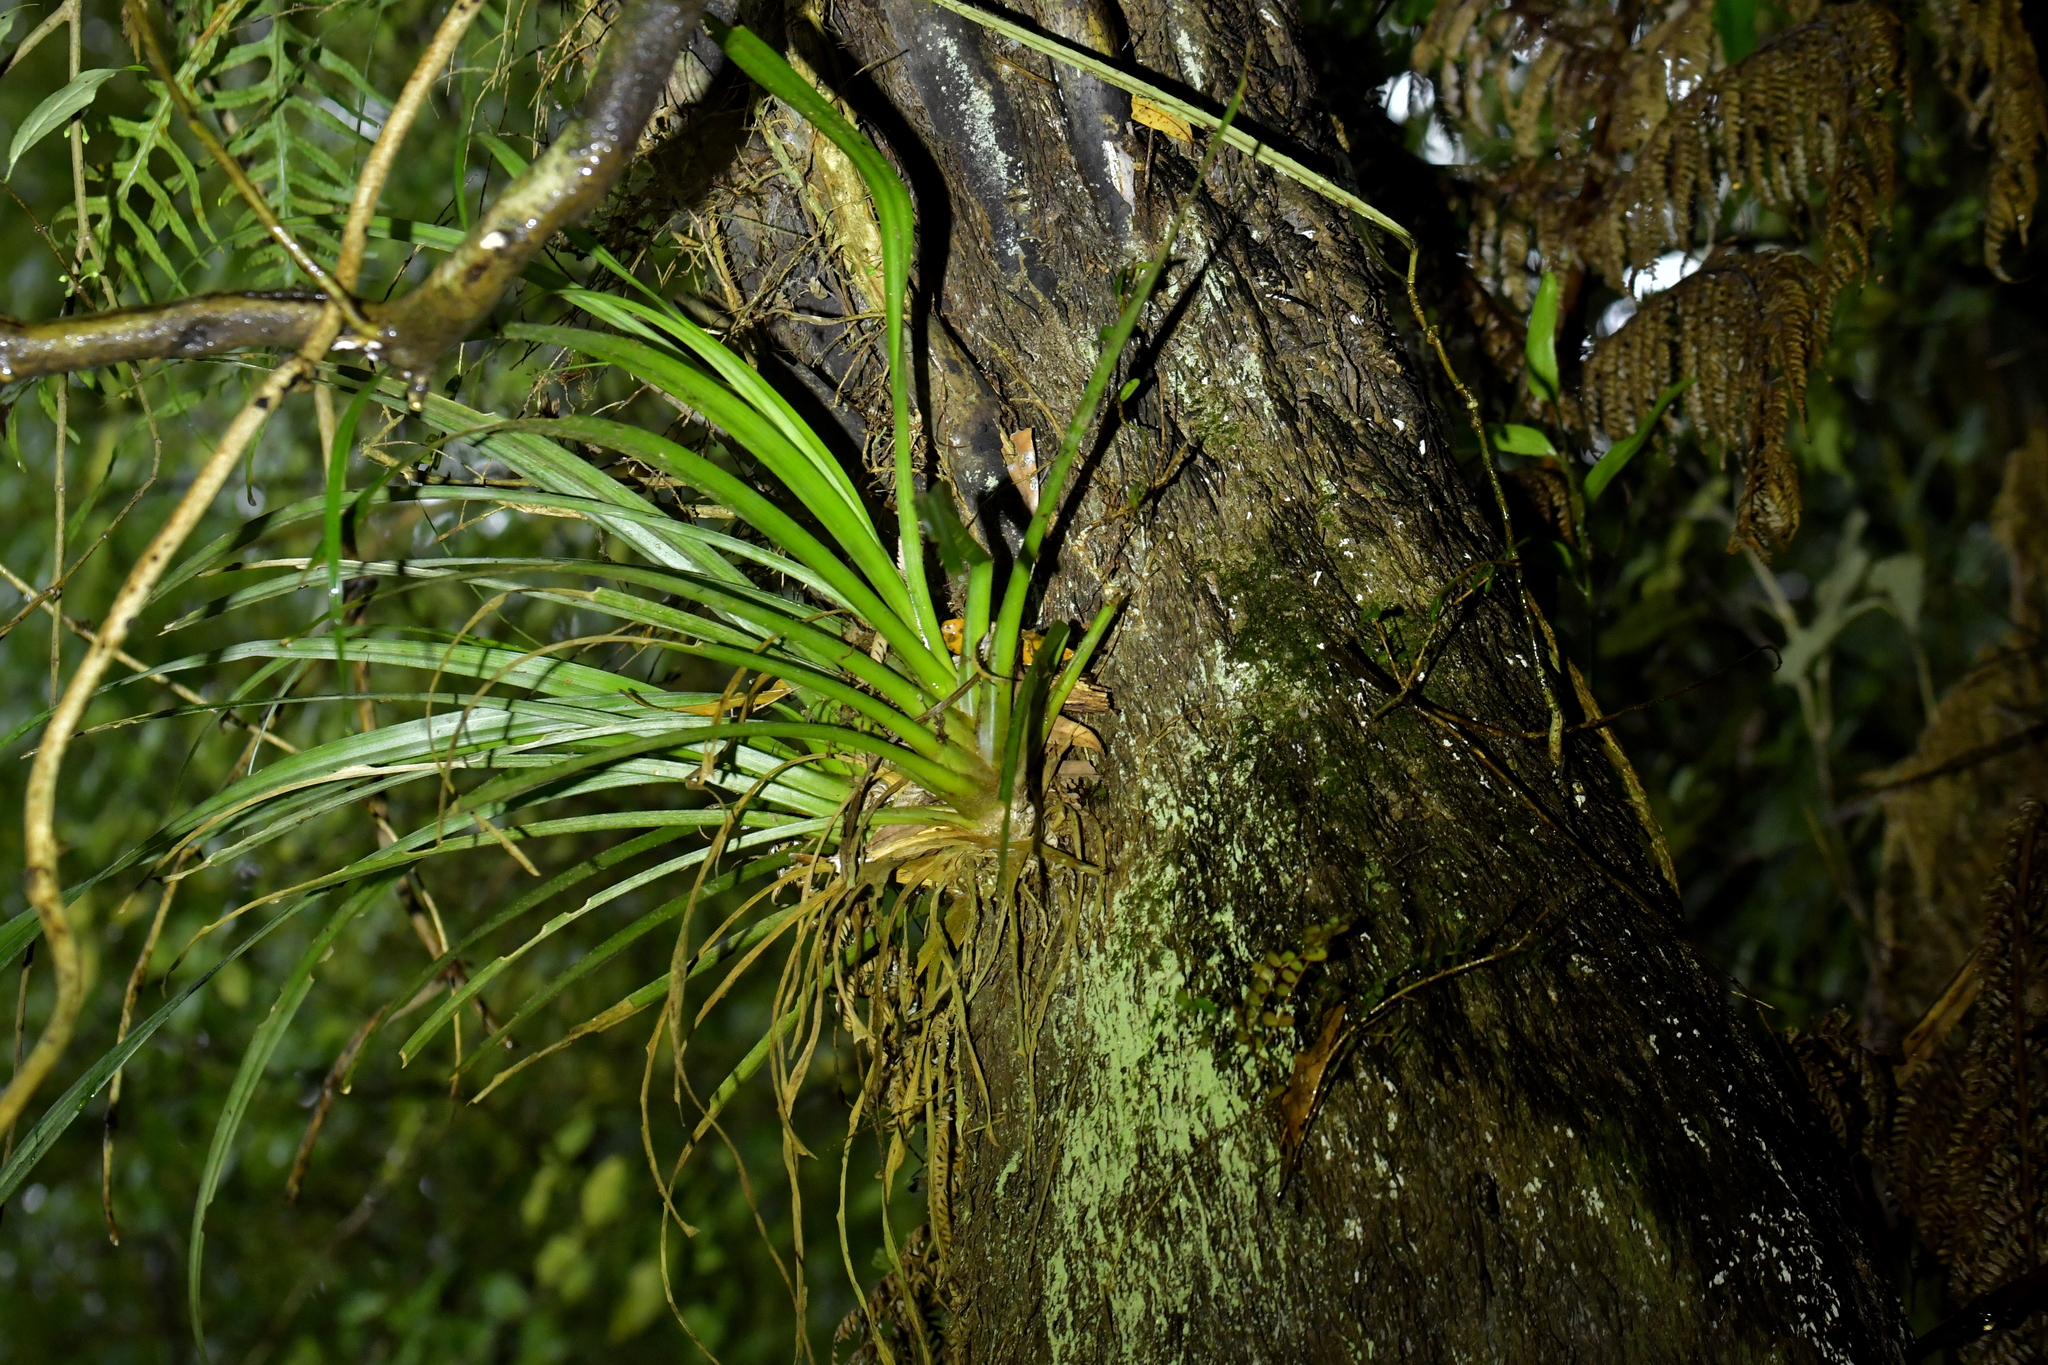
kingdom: Plantae
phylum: Tracheophyta
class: Liliopsida
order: Asparagales
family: Asteliaceae
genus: Astelia
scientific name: Astelia hastata
